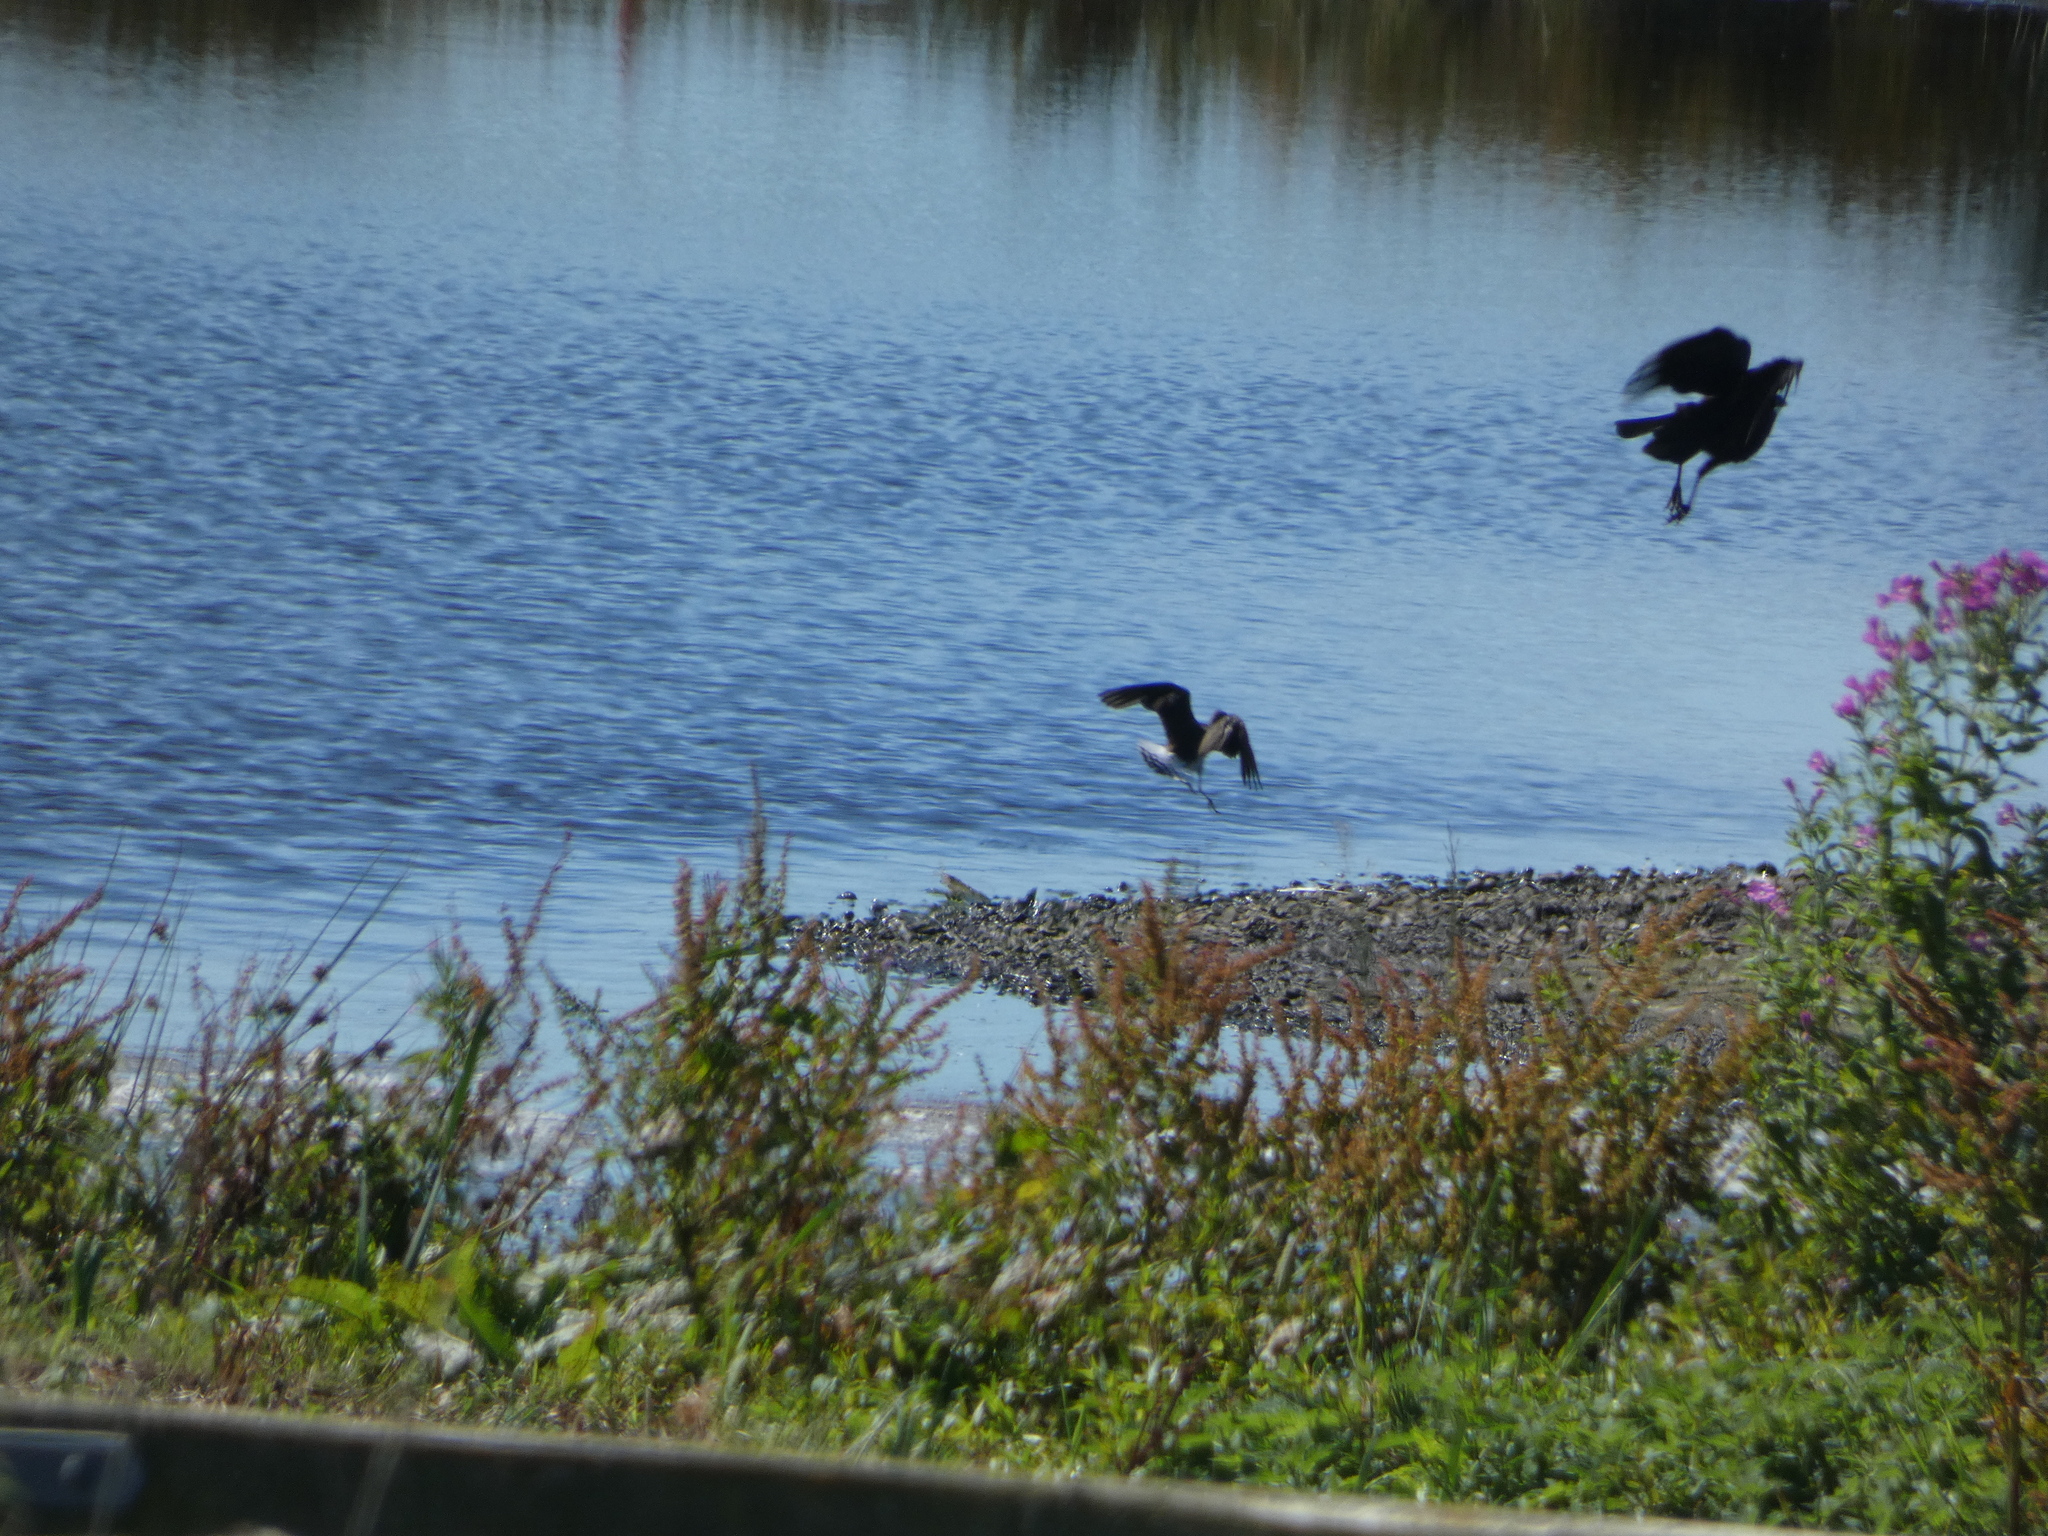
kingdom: Animalia
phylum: Chordata
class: Aves
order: Charadriiformes
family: Scolopacidae
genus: Tringa
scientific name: Tringa ochropus
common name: Green sandpiper
